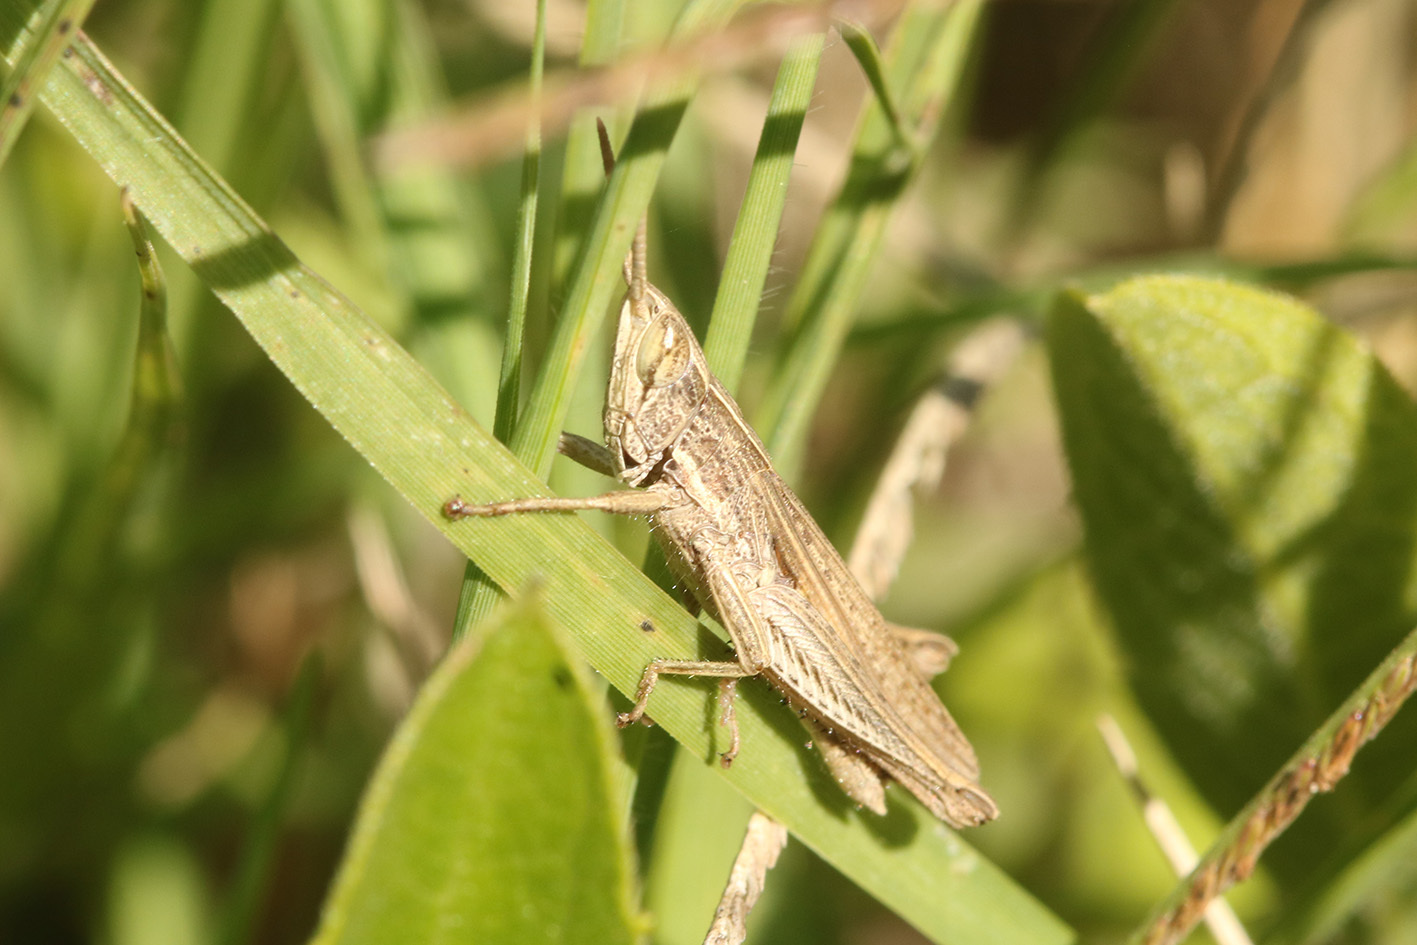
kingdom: Animalia
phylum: Arthropoda
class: Insecta
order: Orthoptera
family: Acrididae
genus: Laplatacris
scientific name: Laplatacris dispar
